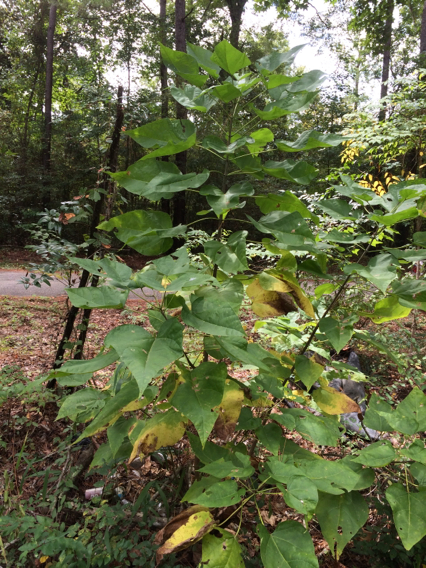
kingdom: Plantae
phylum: Tracheophyta
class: Magnoliopsida
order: Lamiales
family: Bignoniaceae
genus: Catalpa
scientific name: Catalpa bignonioides
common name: Southern catalpa
